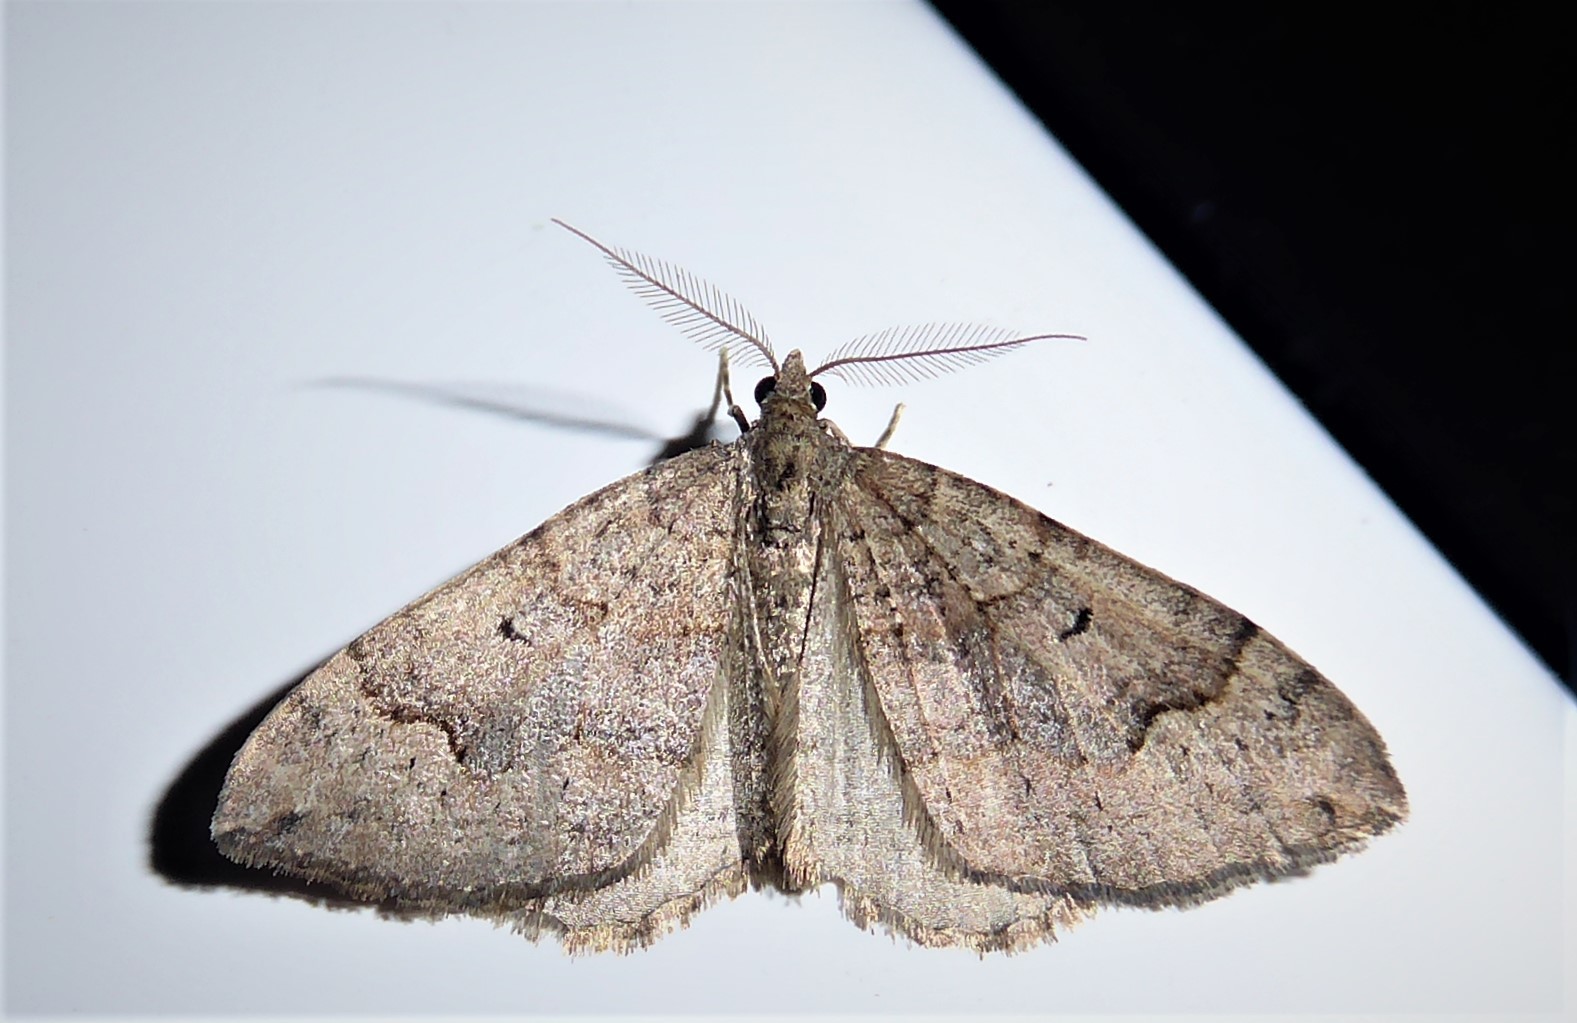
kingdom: Animalia
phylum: Arthropoda
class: Insecta
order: Lepidoptera
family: Geometridae
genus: Epyaxa
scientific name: Epyaxa rosearia
